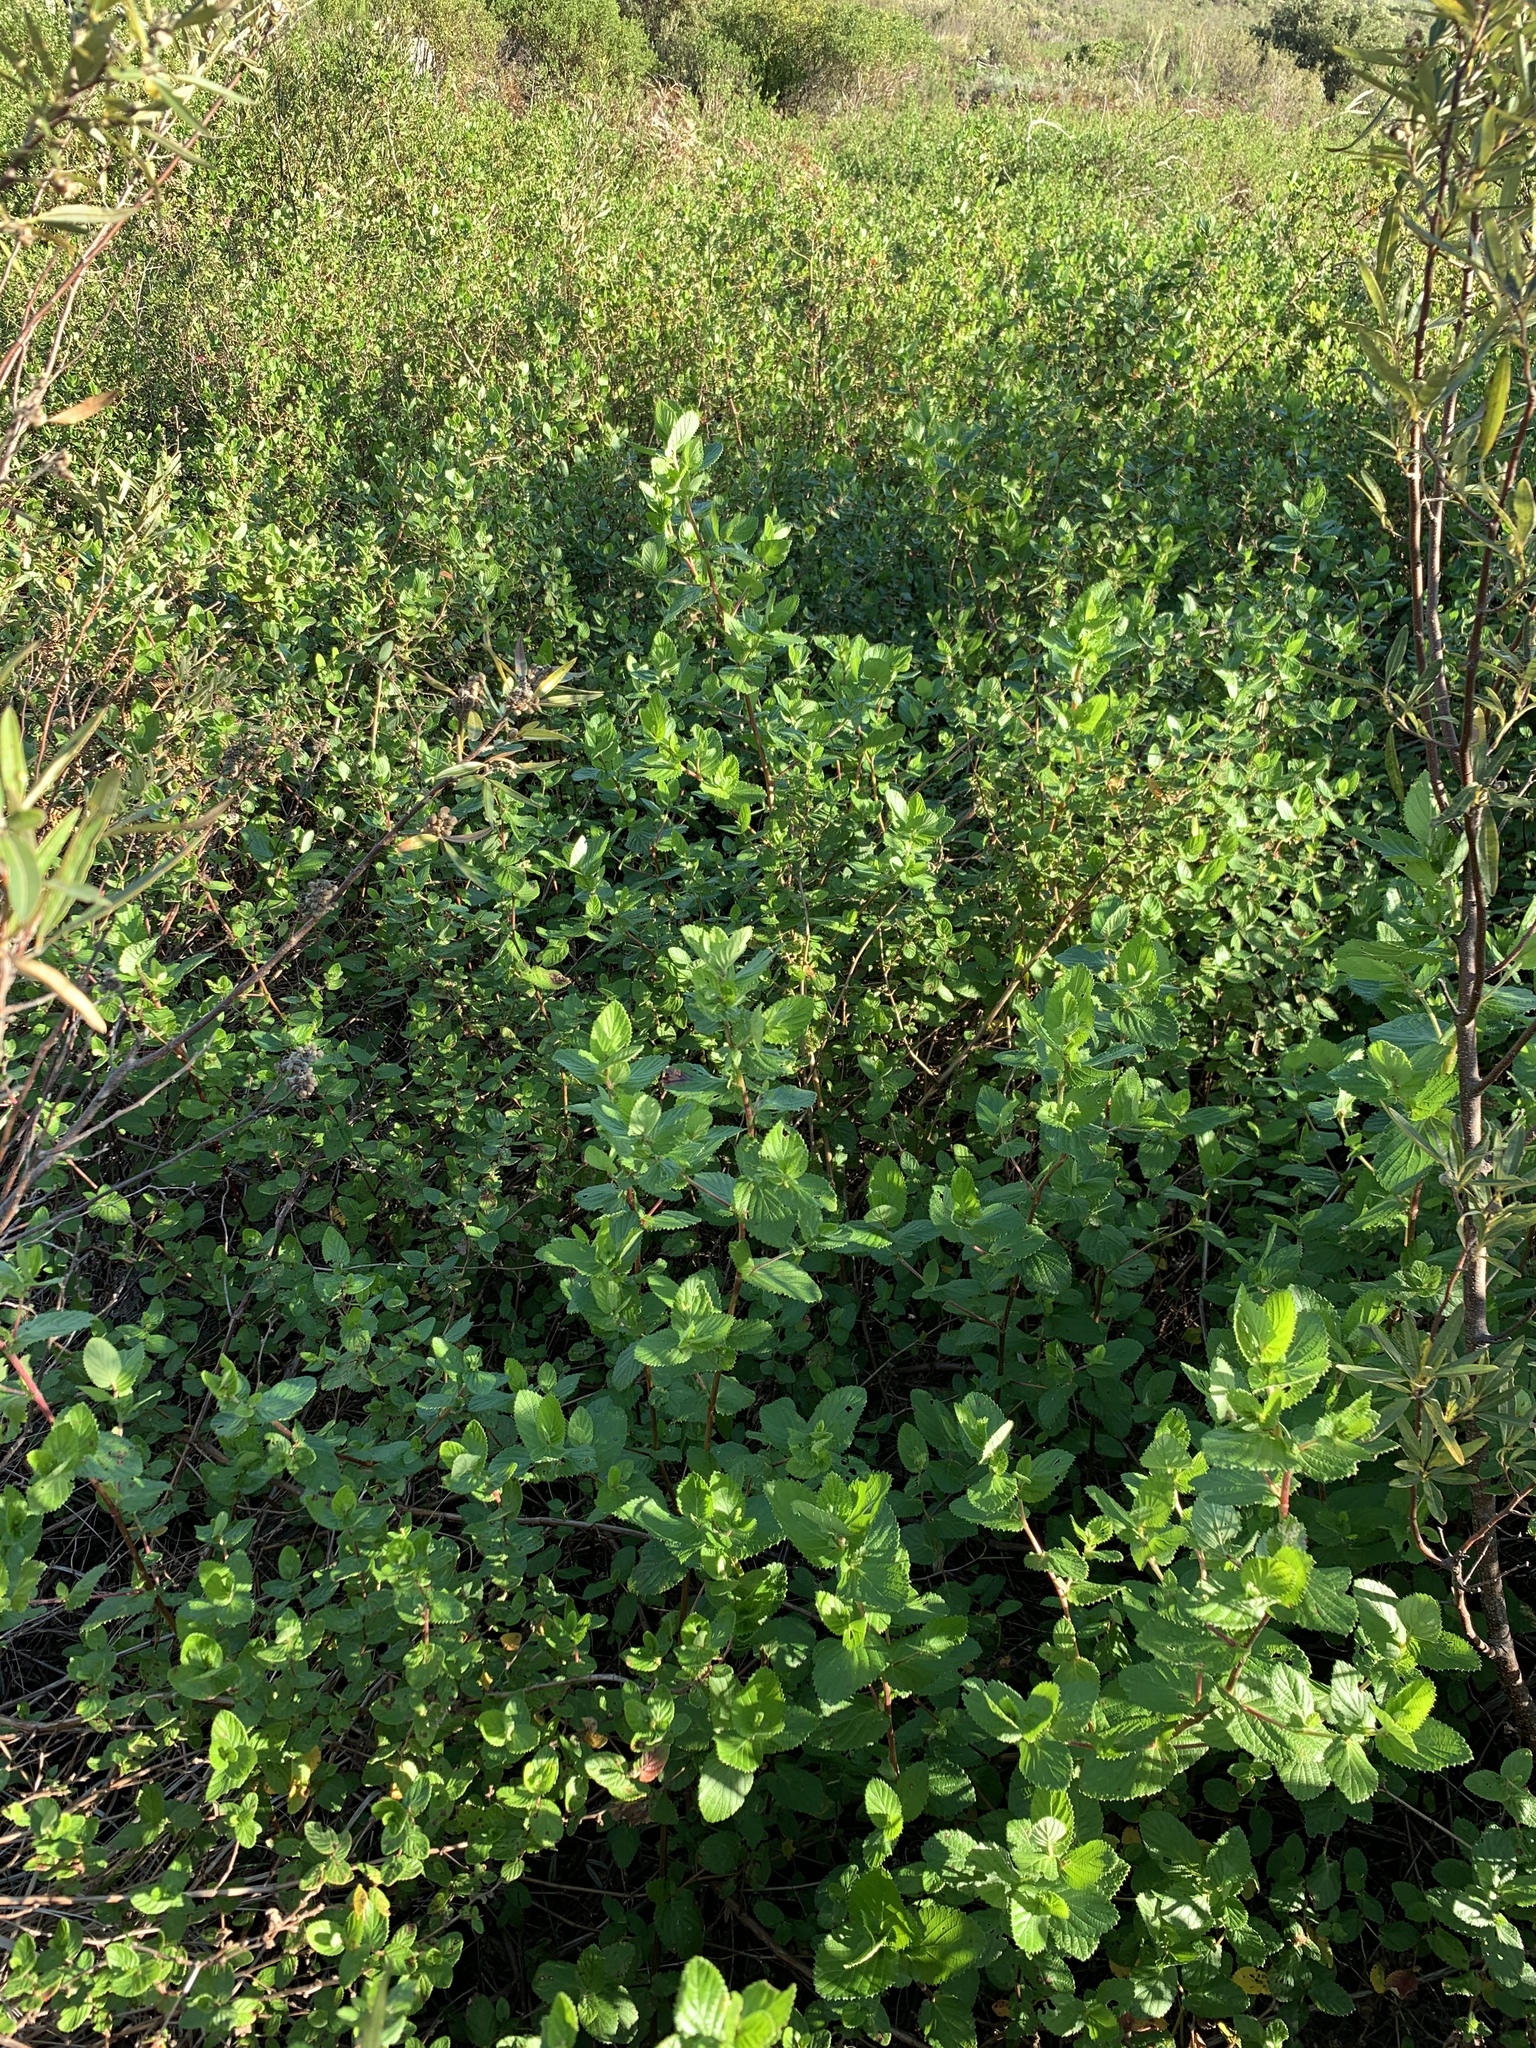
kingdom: Plantae
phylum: Tracheophyta
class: Magnoliopsida
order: Rosales
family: Rosaceae
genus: Cliffortia
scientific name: Cliffortia odorata
